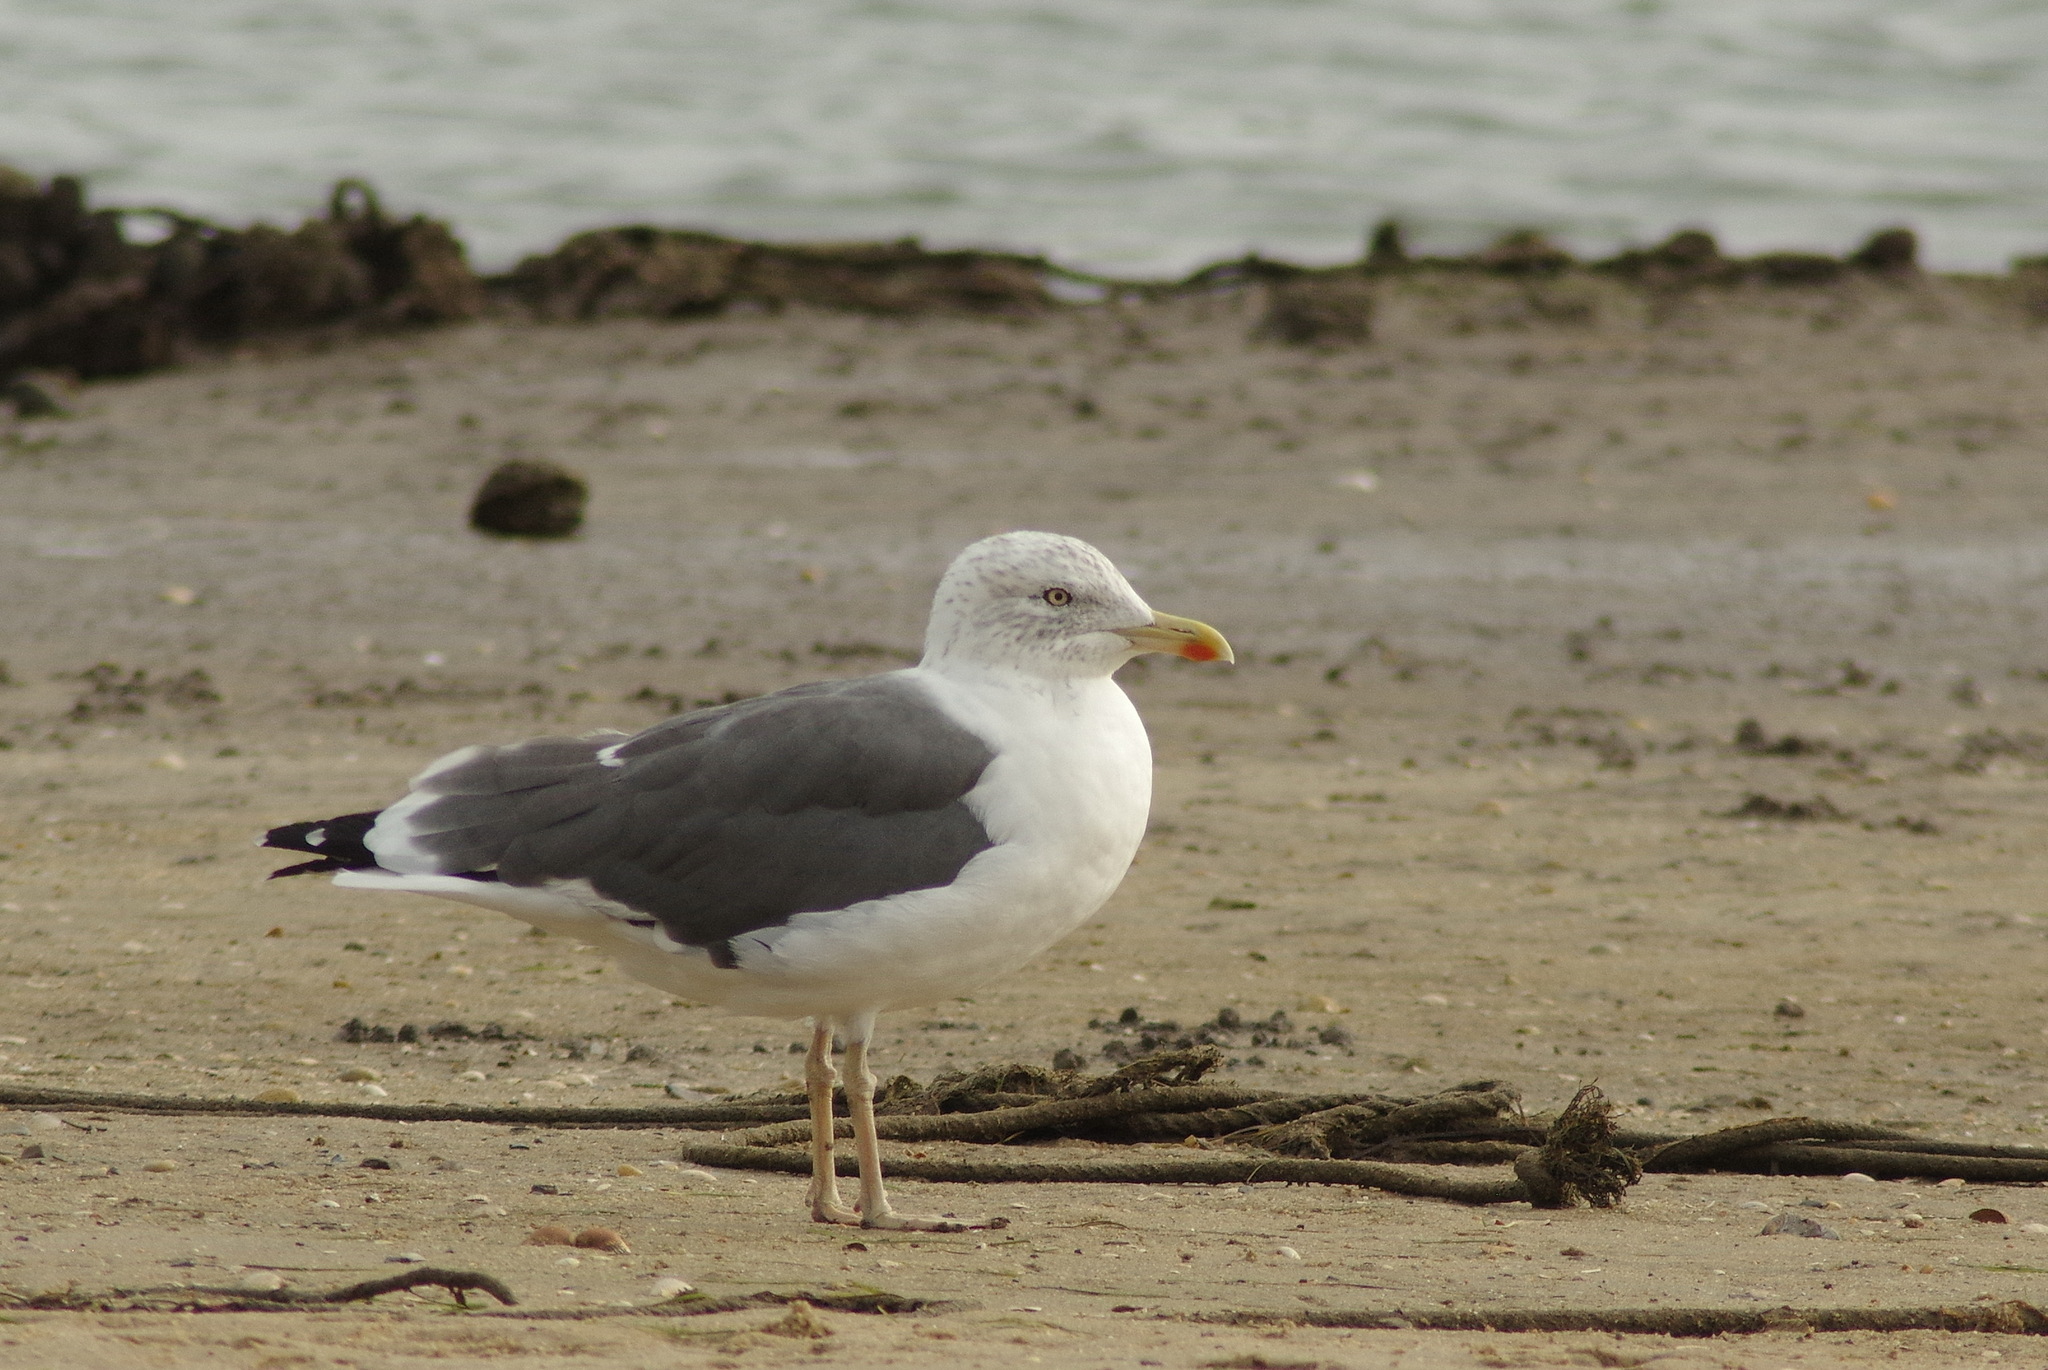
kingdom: Animalia
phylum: Chordata
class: Aves
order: Charadriiformes
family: Laridae
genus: Larus
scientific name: Larus fuscus
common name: Lesser black-backed gull
